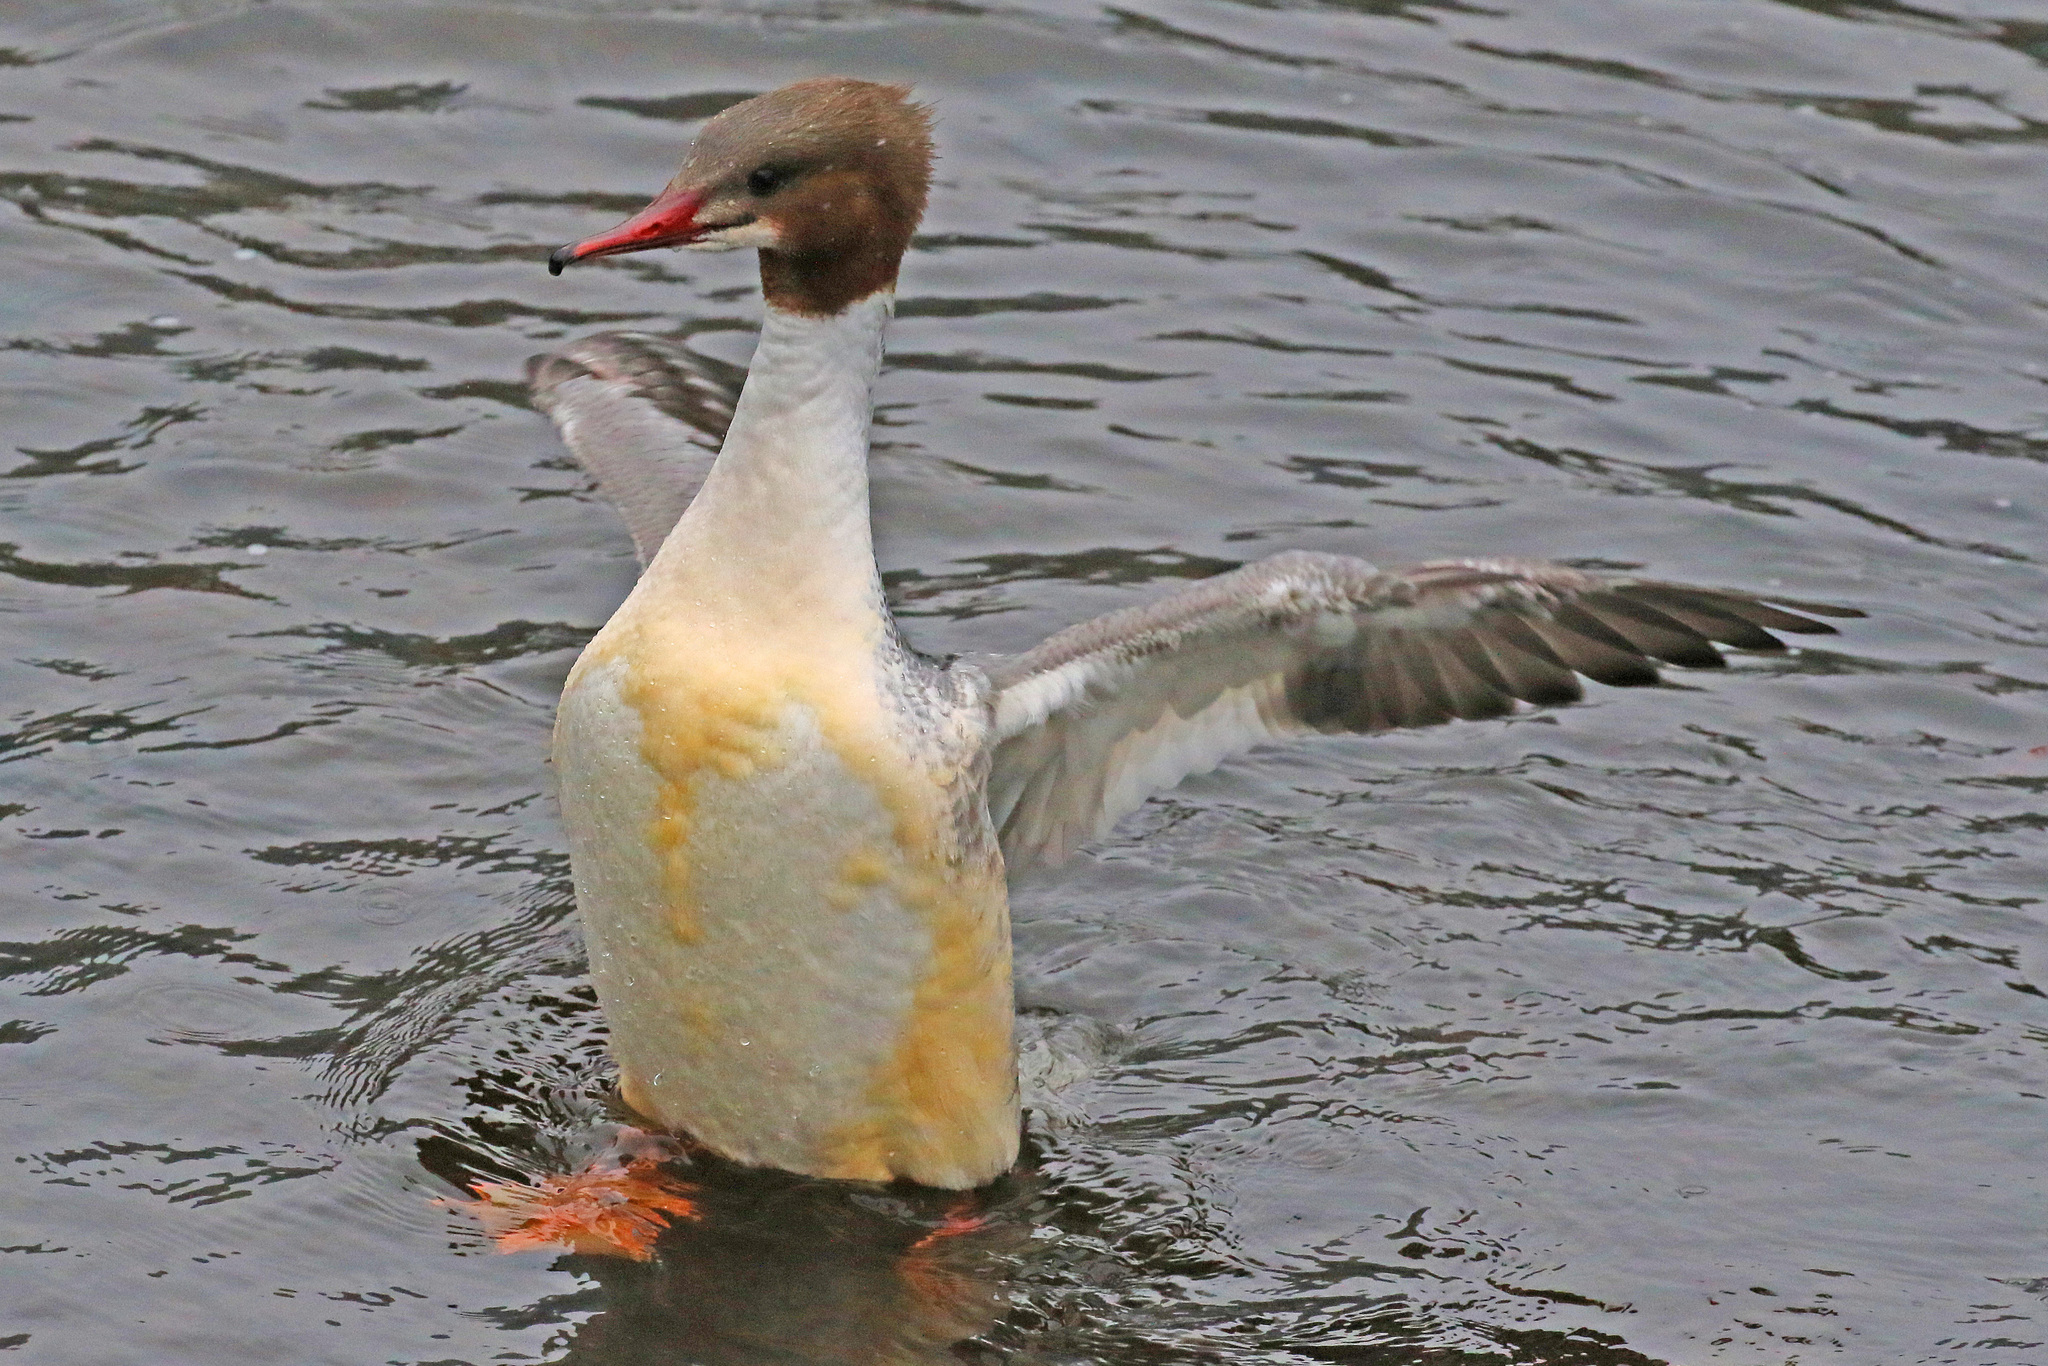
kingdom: Animalia
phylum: Chordata
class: Aves
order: Anseriformes
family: Anatidae
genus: Mergus
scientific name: Mergus merganser
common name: Common merganser
